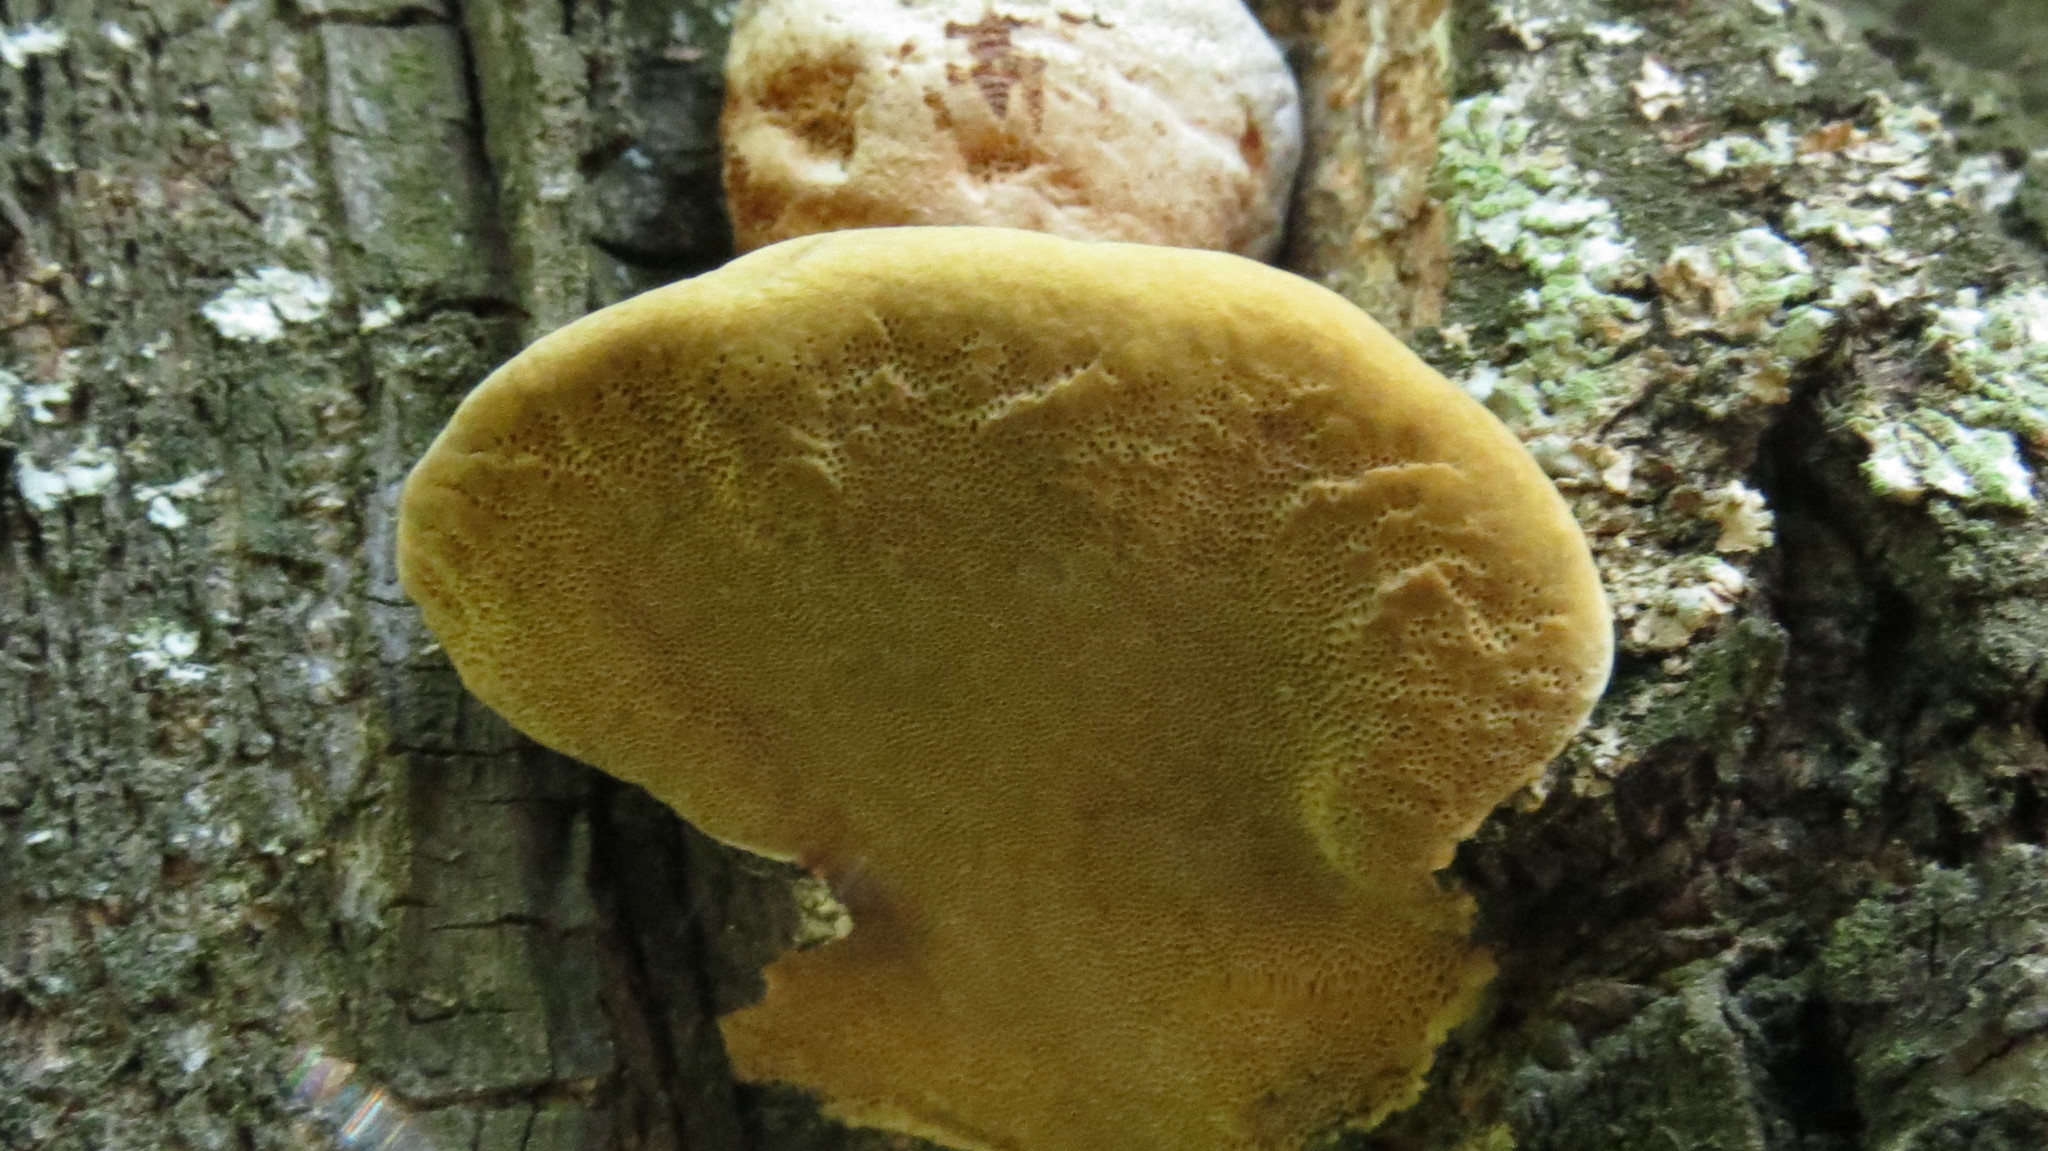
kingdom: Fungi
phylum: Basidiomycota
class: Agaricomycetes
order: Hymenochaetales
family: Hymenochaetaceae
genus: Fomitiporia
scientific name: Fomitiporia robusta
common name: Robust bracket
